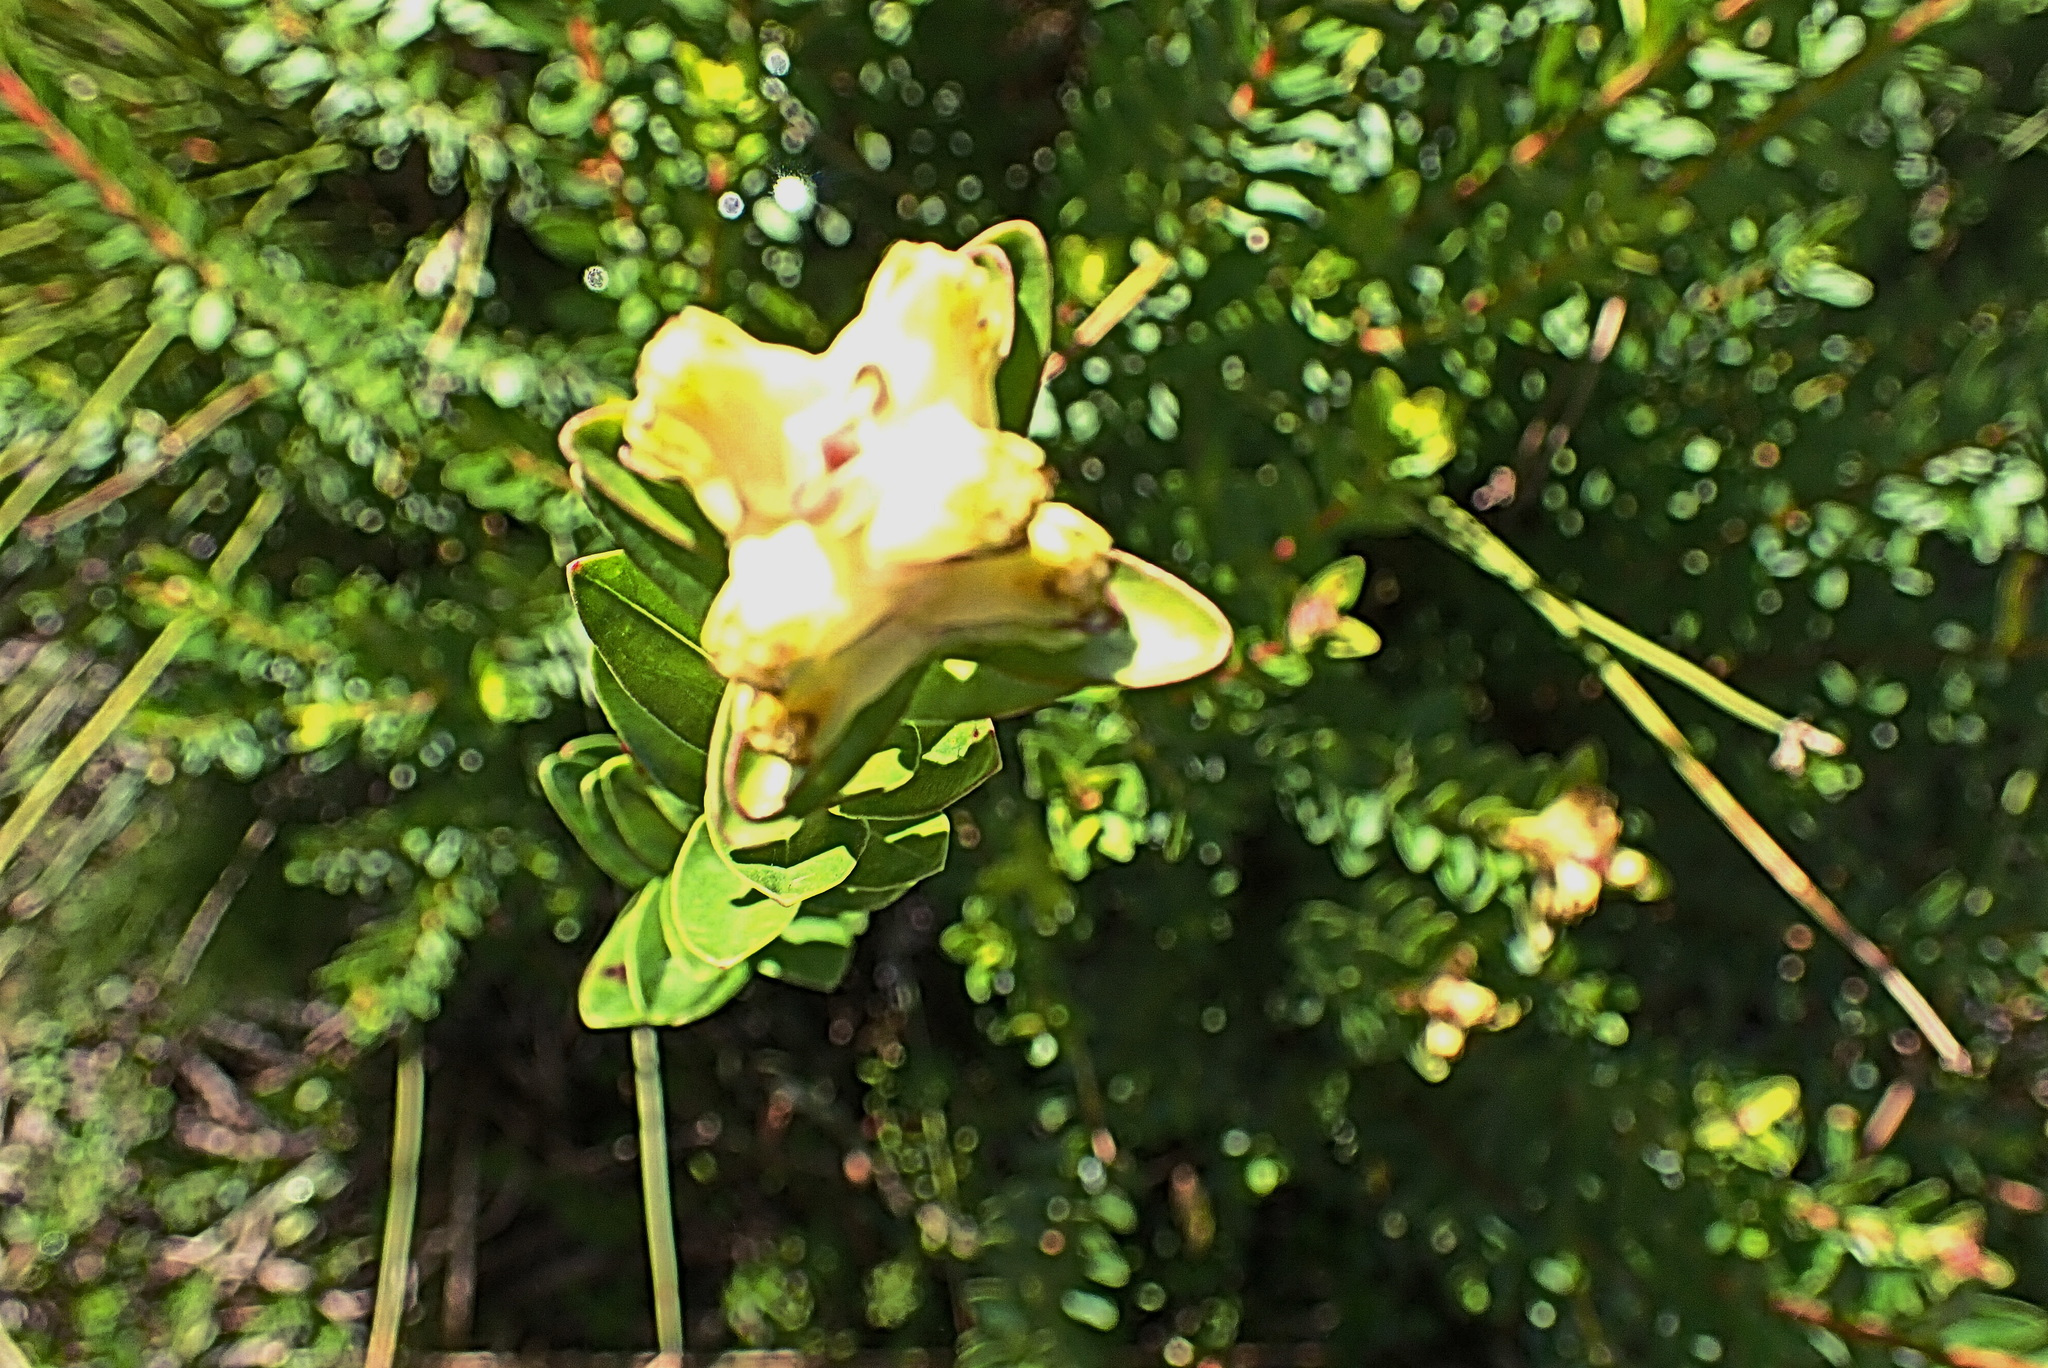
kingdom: Plantae
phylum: Tracheophyta
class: Magnoliopsida
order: Myrtales
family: Penaeaceae
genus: Penaea
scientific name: Penaea cneorum
